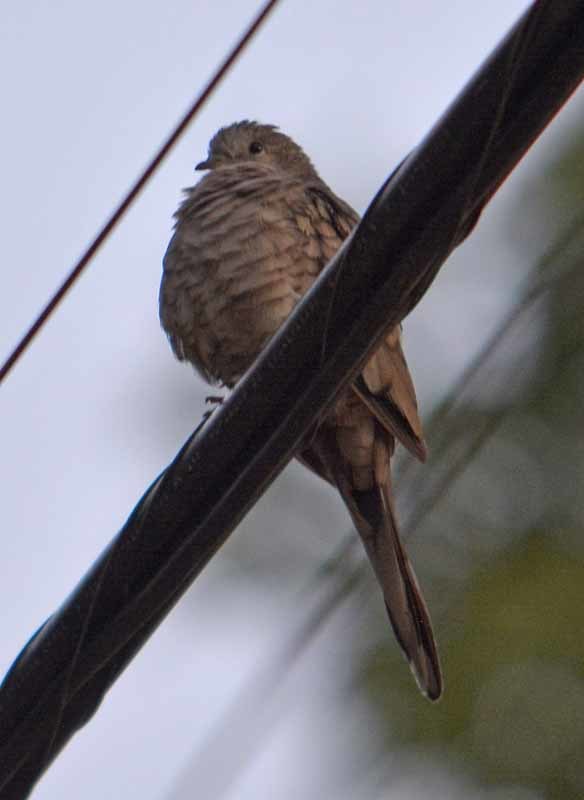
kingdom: Animalia
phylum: Chordata
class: Aves
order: Columbiformes
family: Columbidae
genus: Columbina
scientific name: Columbina inca
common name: Inca dove
